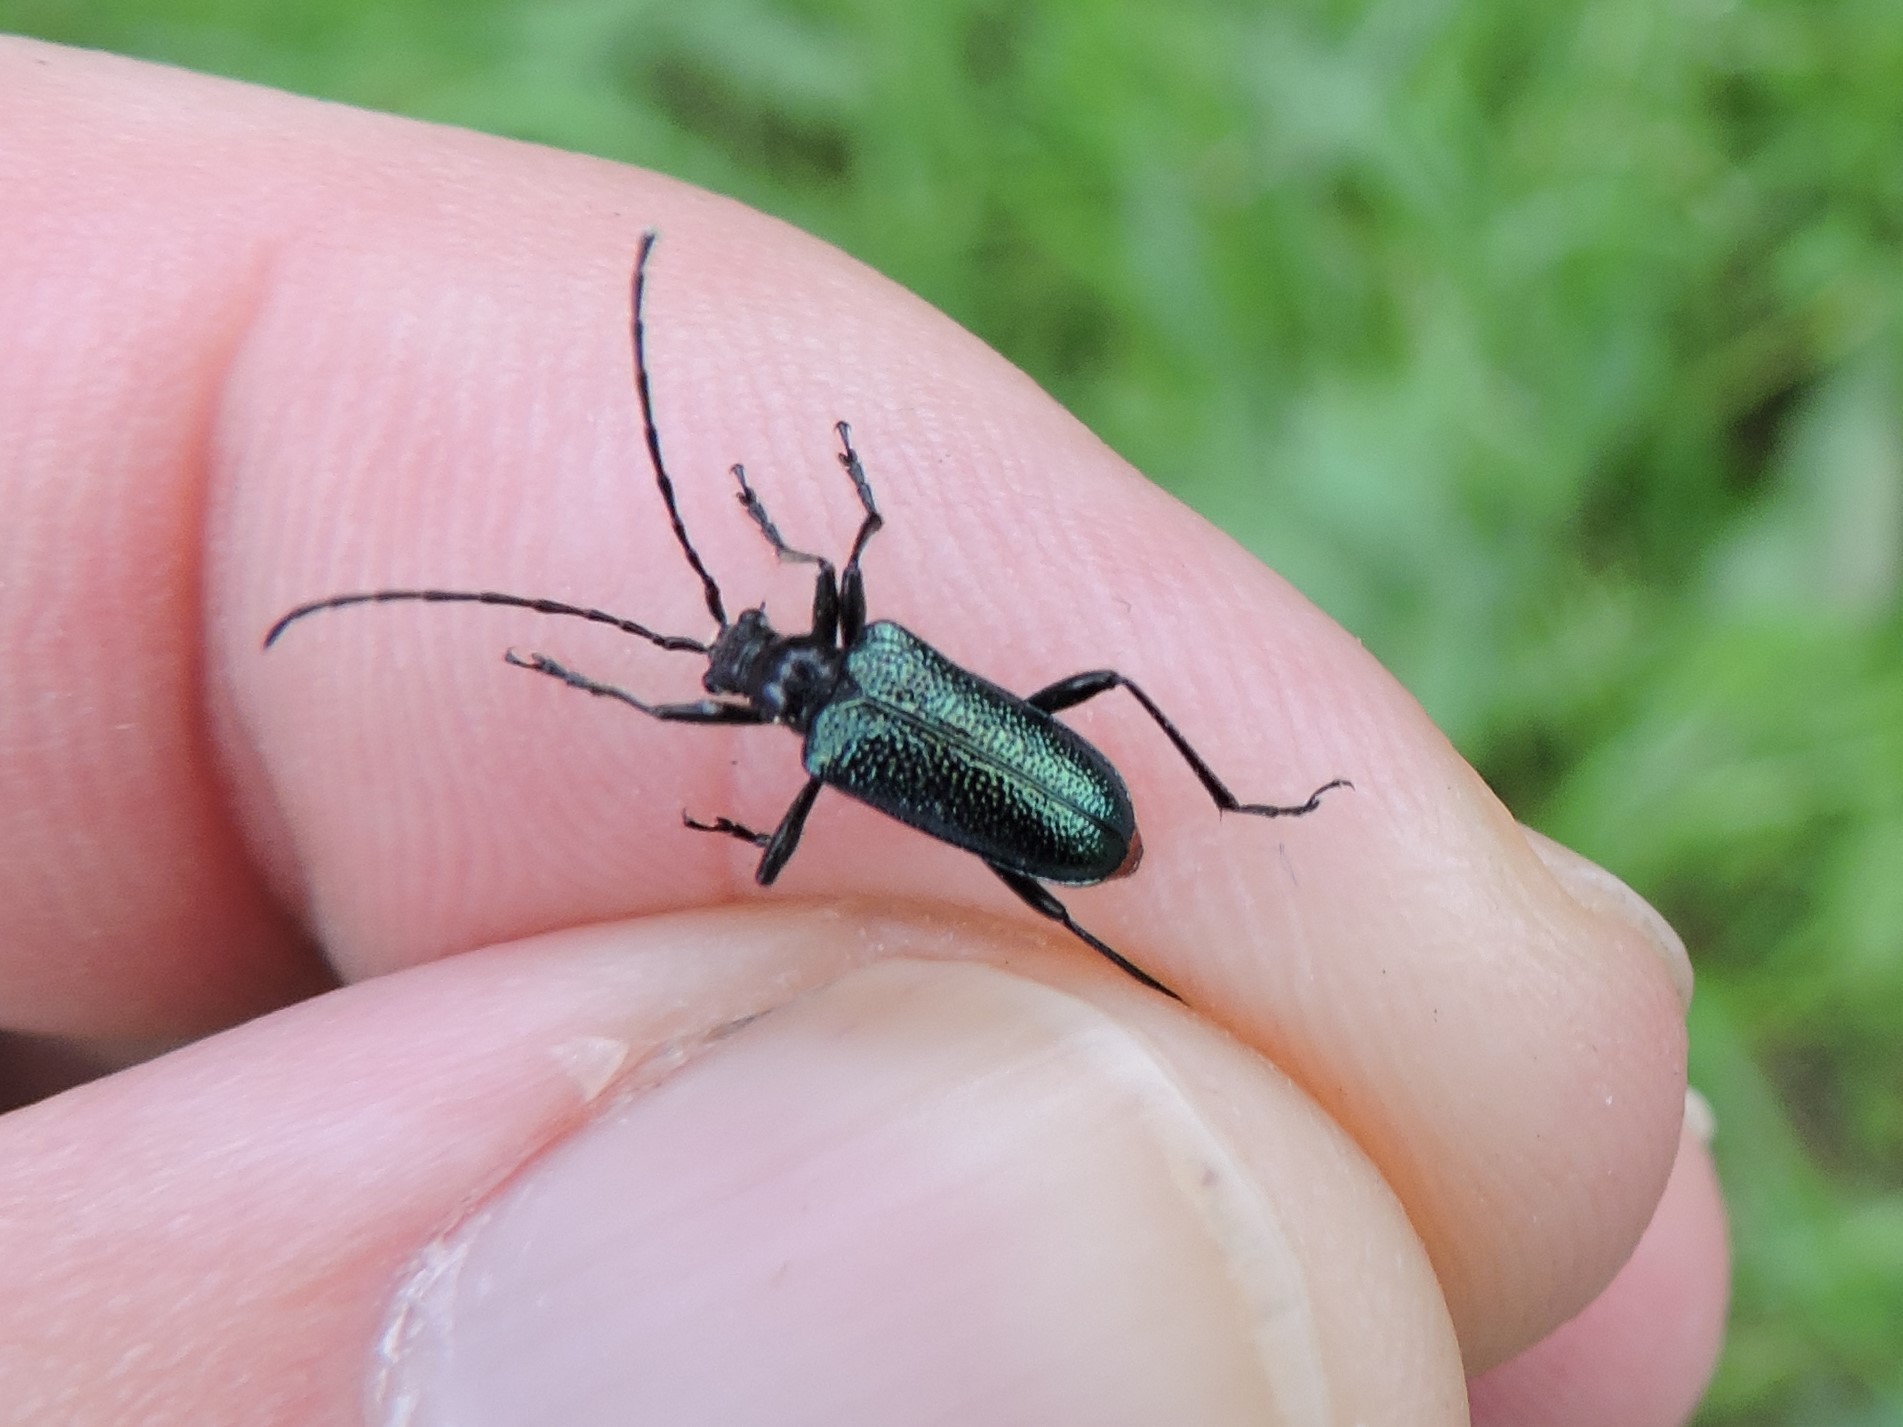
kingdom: Animalia
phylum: Arthropoda
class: Insecta
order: Coleoptera
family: Cerambycidae
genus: Gaurotes
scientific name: Gaurotes virginea
